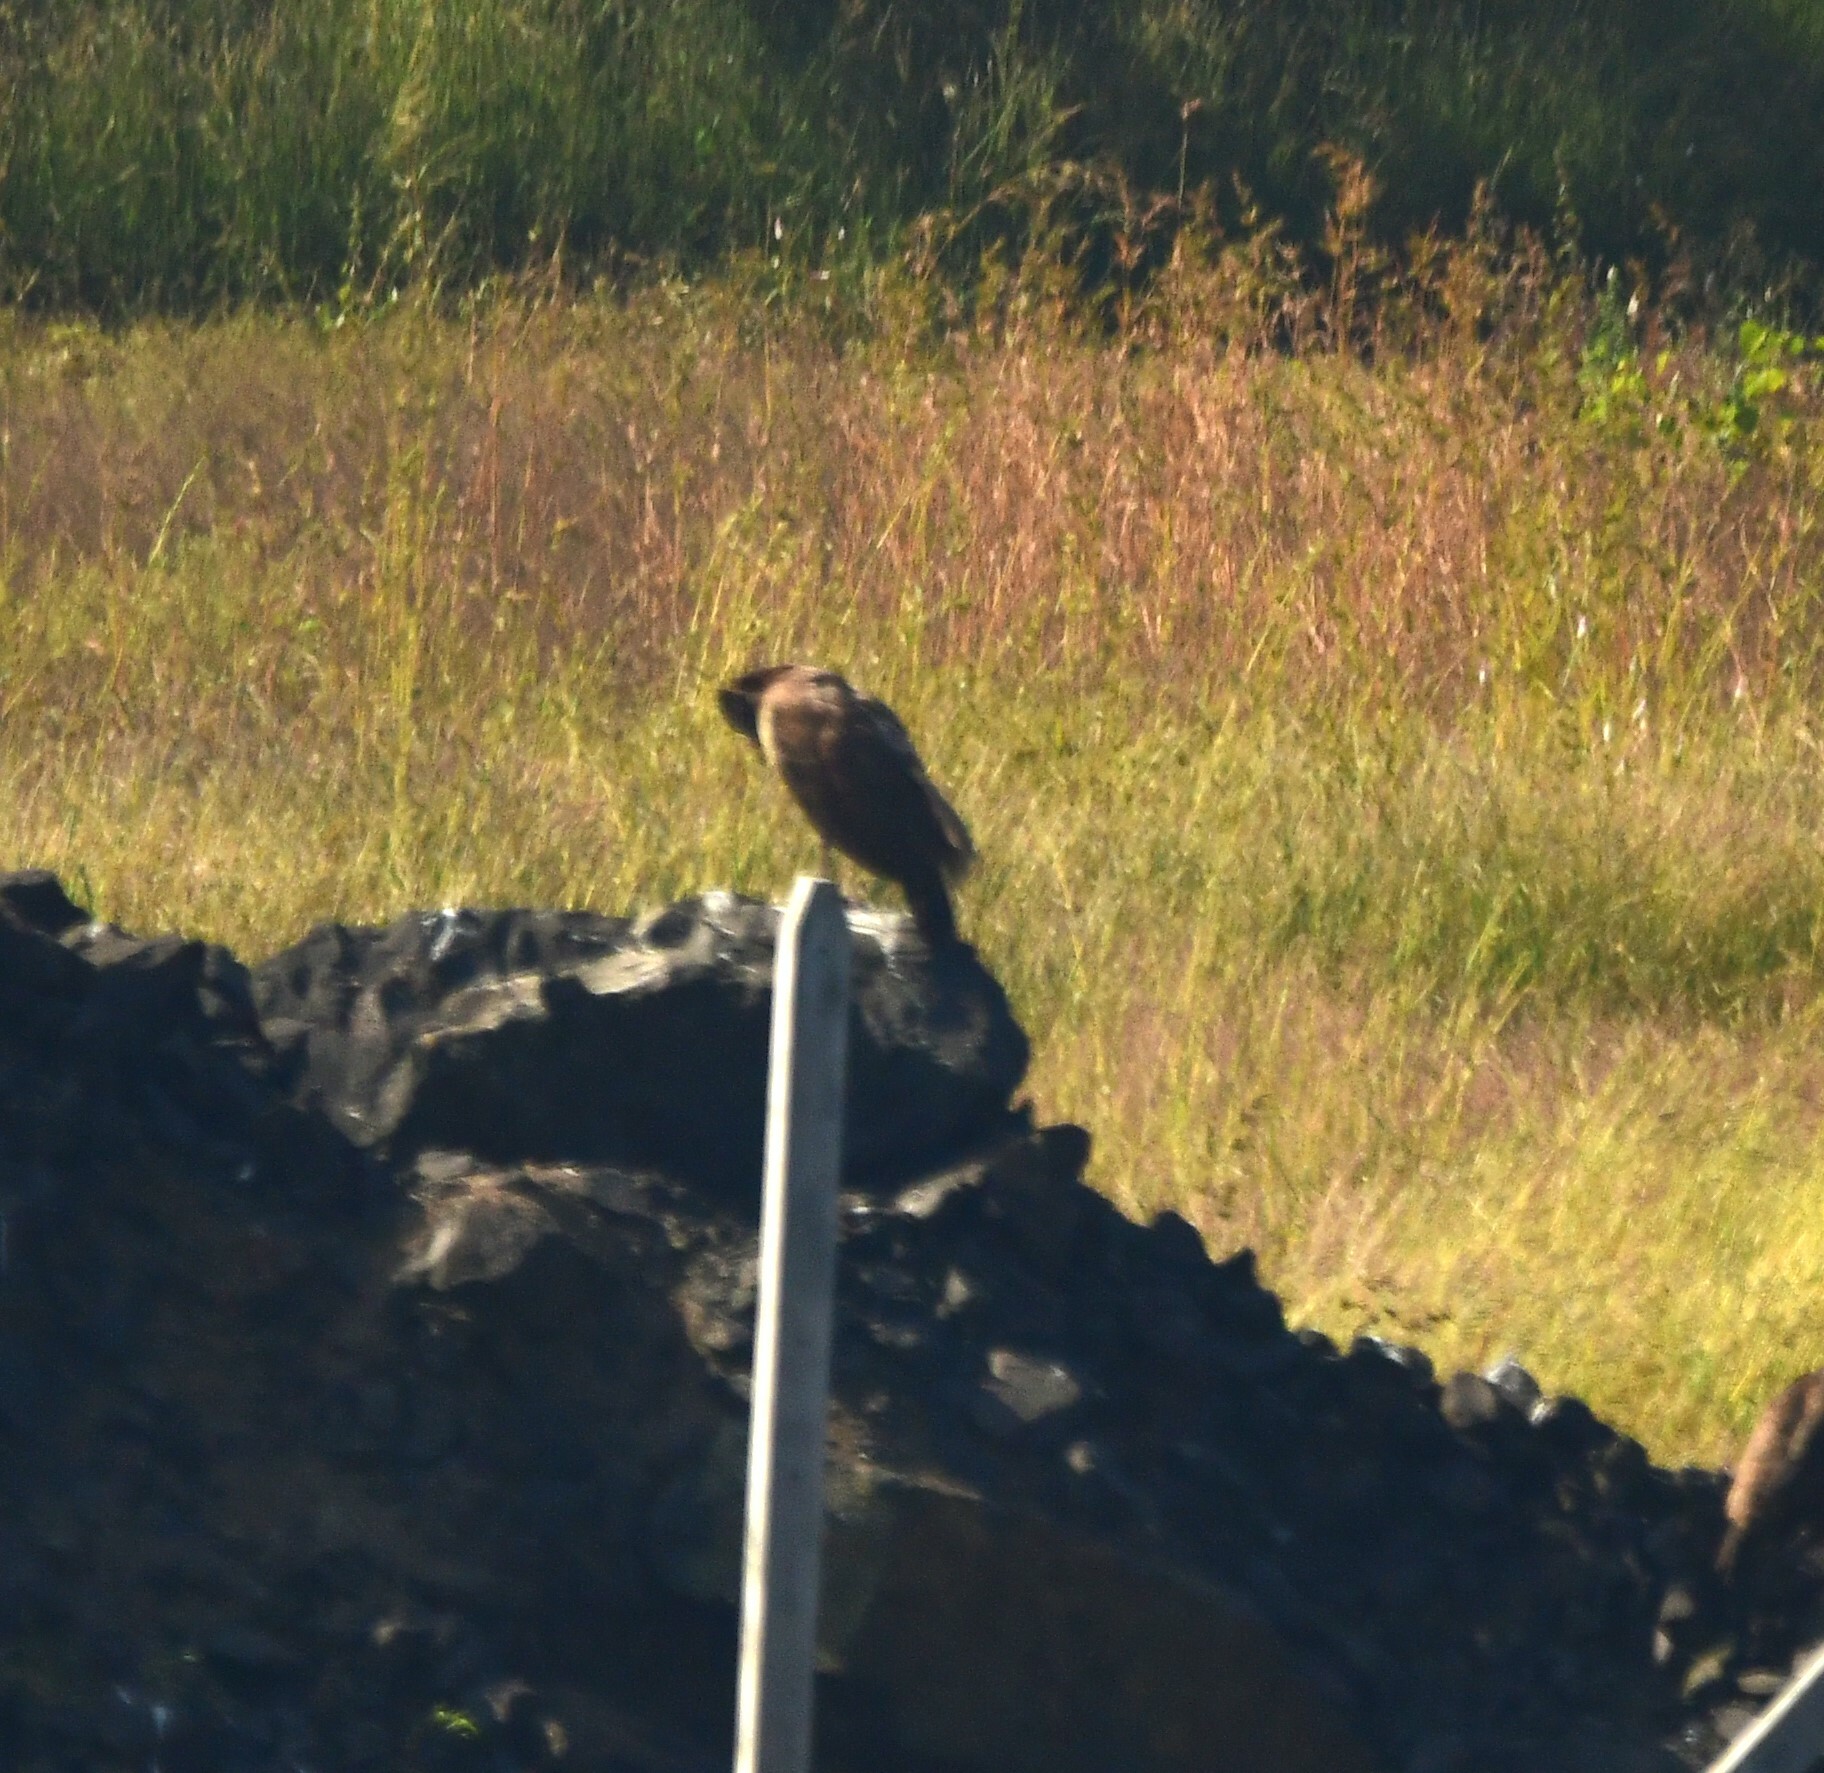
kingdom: Animalia
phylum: Chordata
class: Aves
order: Galliformes
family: Phasianidae
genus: Pavo
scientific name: Pavo cristatus
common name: Indian peafowl
